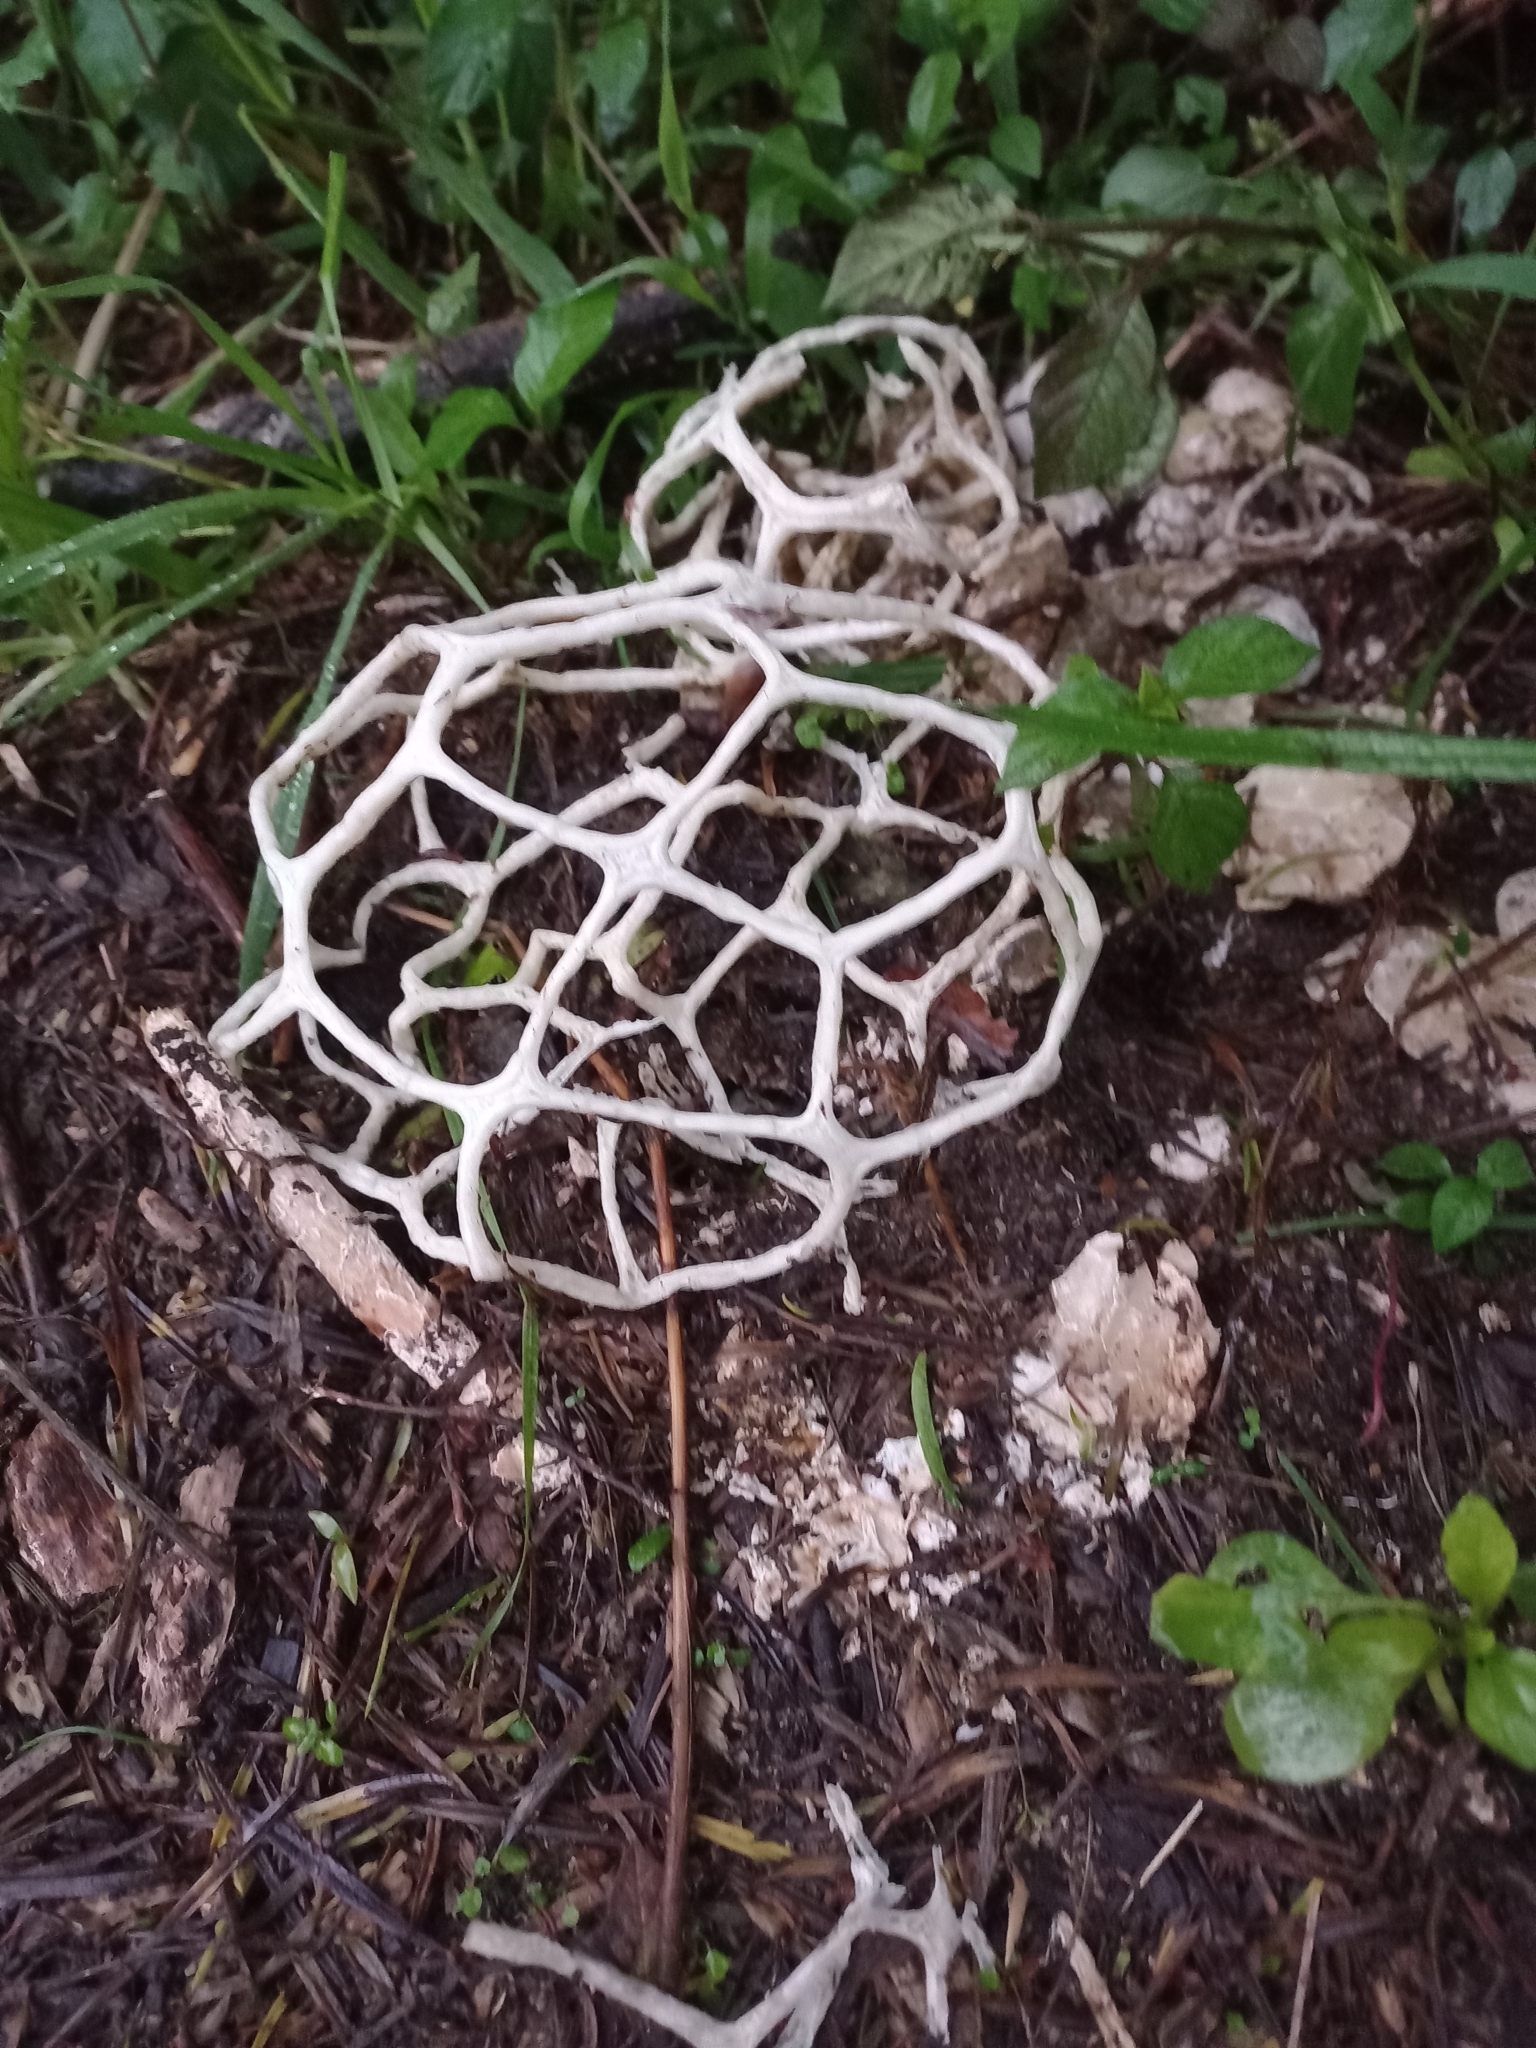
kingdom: Fungi
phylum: Basidiomycota
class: Agaricomycetes
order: Phallales
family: Phallaceae
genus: Ileodictyon
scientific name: Ileodictyon gracile
